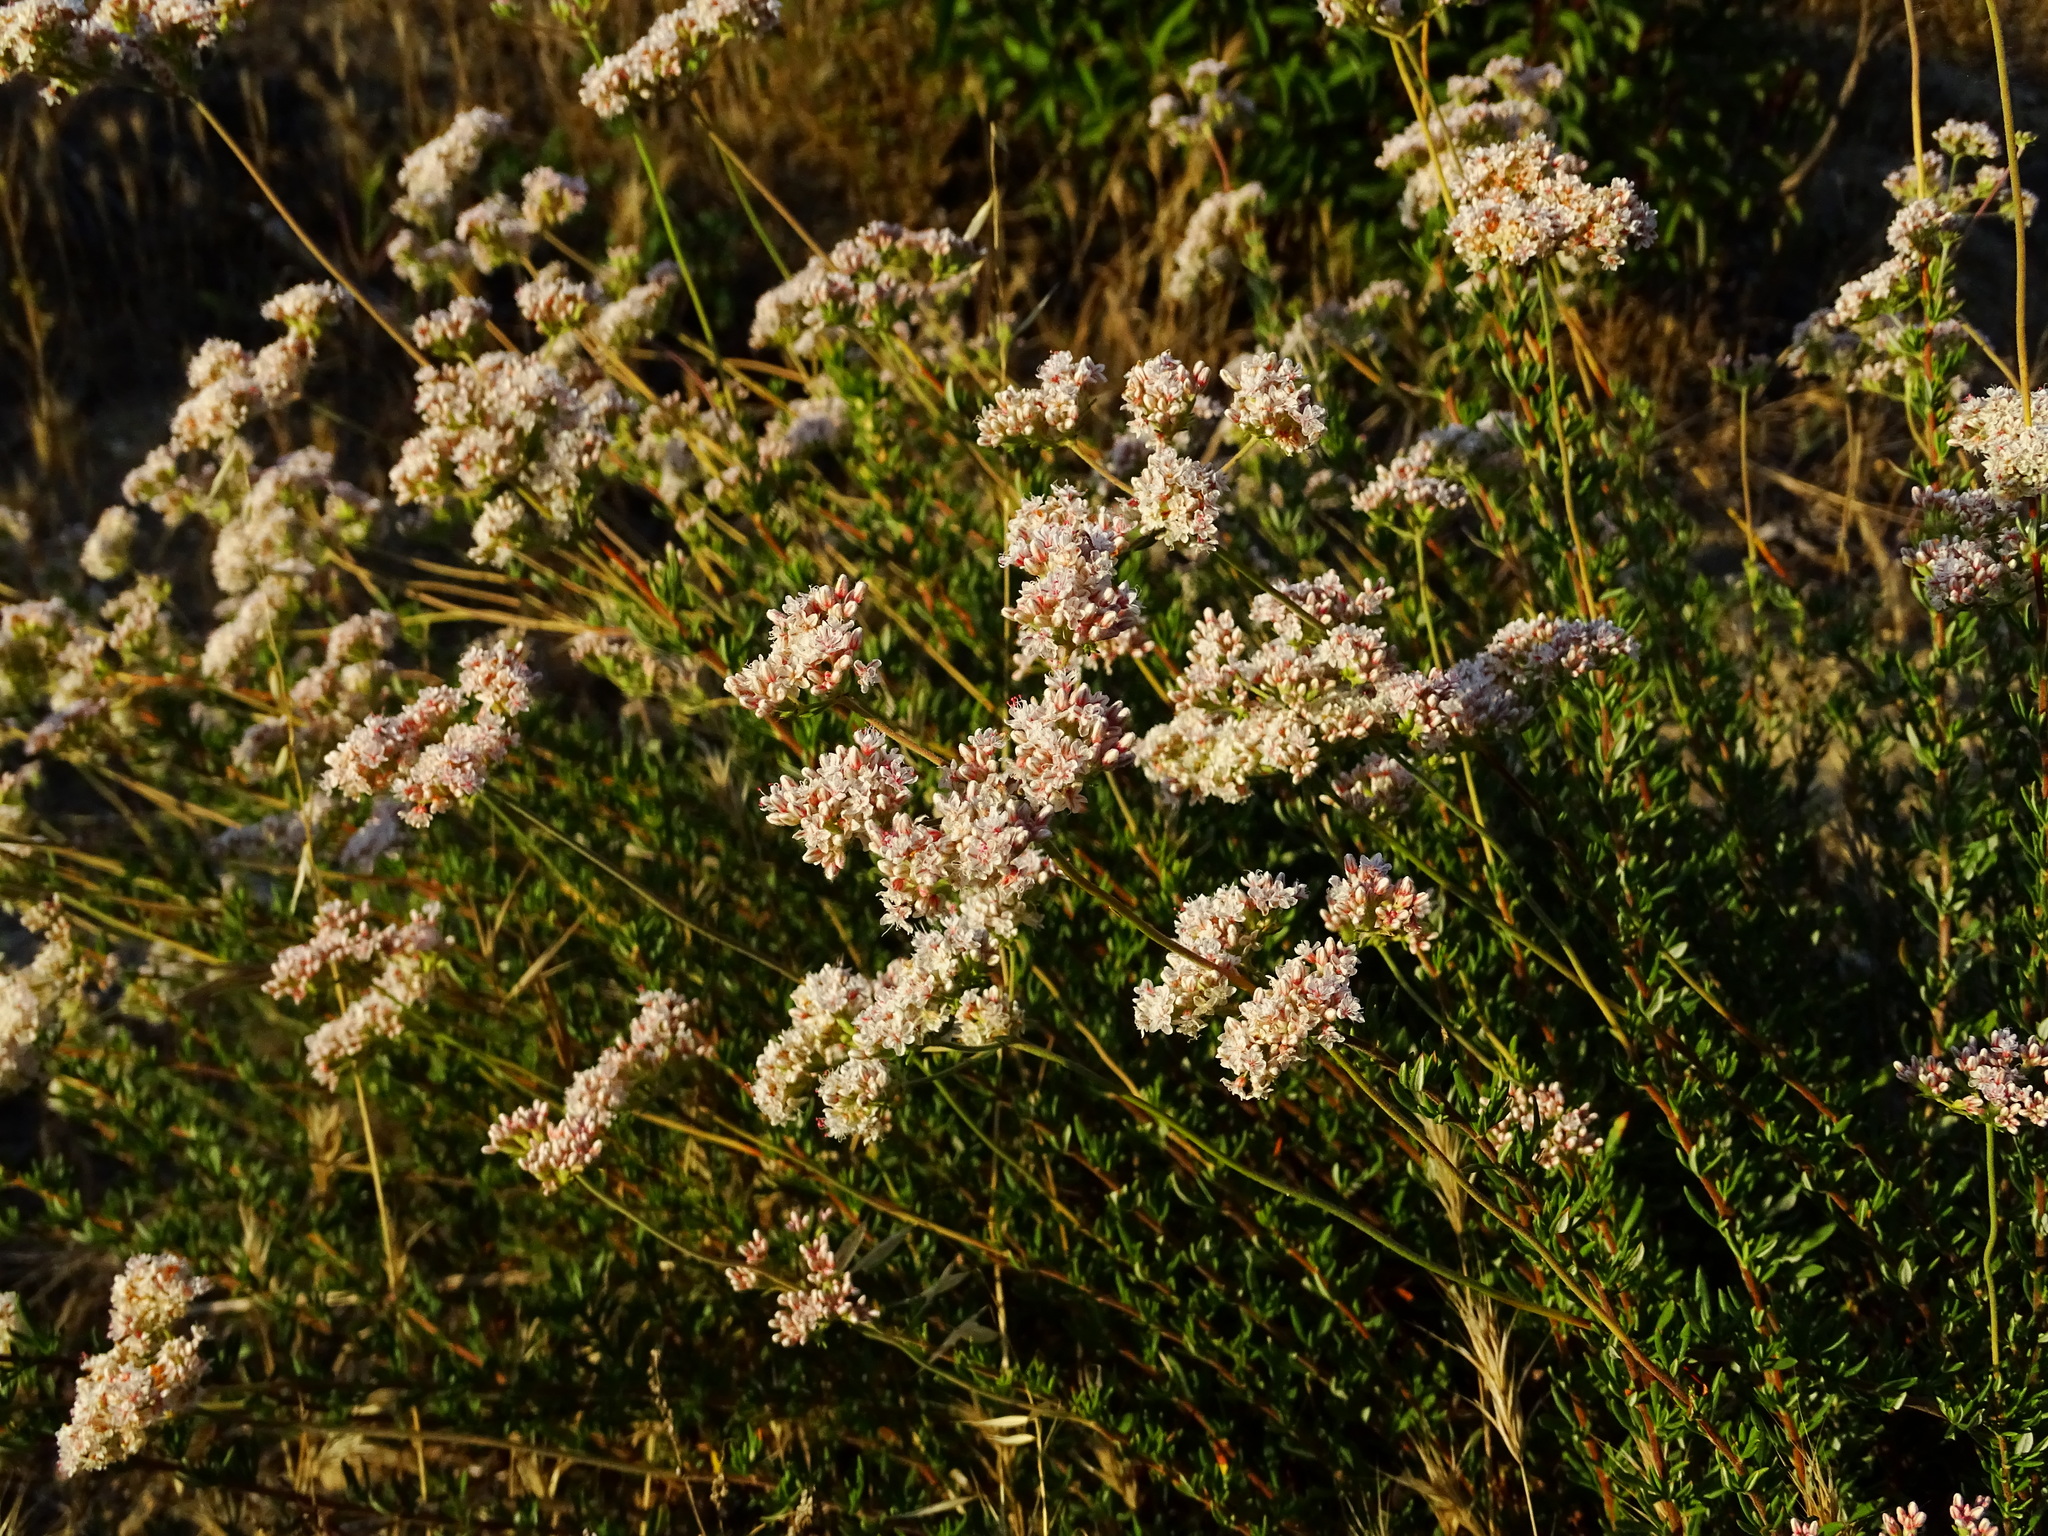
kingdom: Plantae
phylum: Tracheophyta
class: Magnoliopsida
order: Caryophyllales
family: Polygonaceae
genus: Eriogonum
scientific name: Eriogonum fasciculatum
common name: California wild buckwheat
